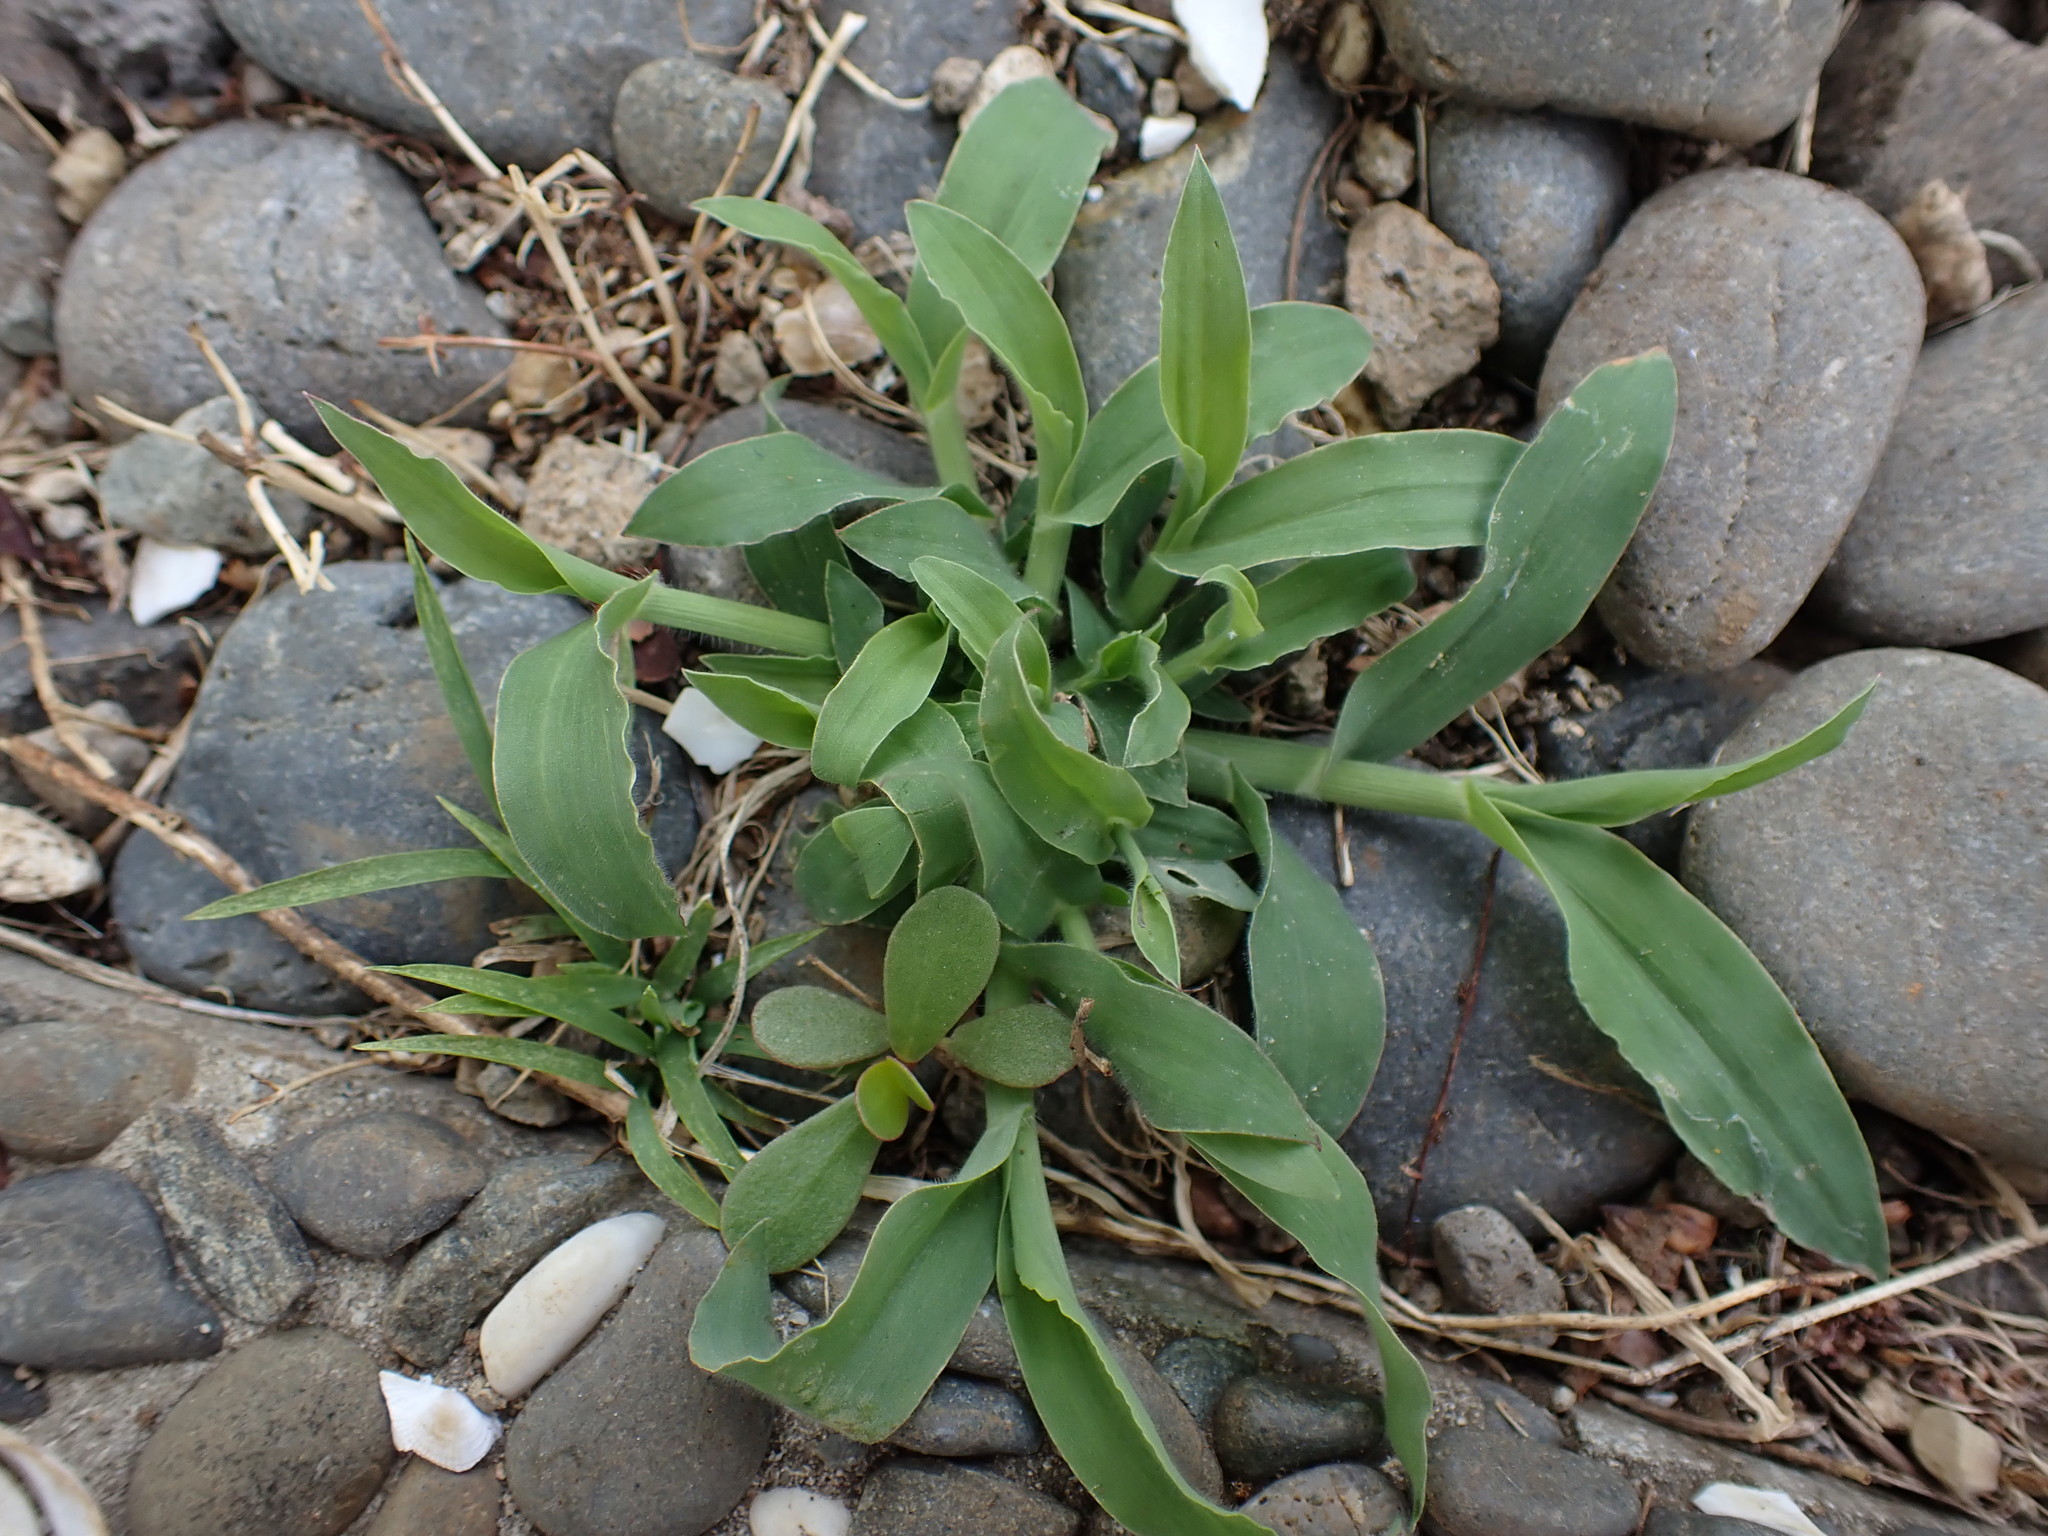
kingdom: Plantae
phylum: Tracheophyta
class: Liliopsida
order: Poales
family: Poaceae
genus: Digitaria
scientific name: Digitaria sanguinalis
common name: Hairy crabgrass
